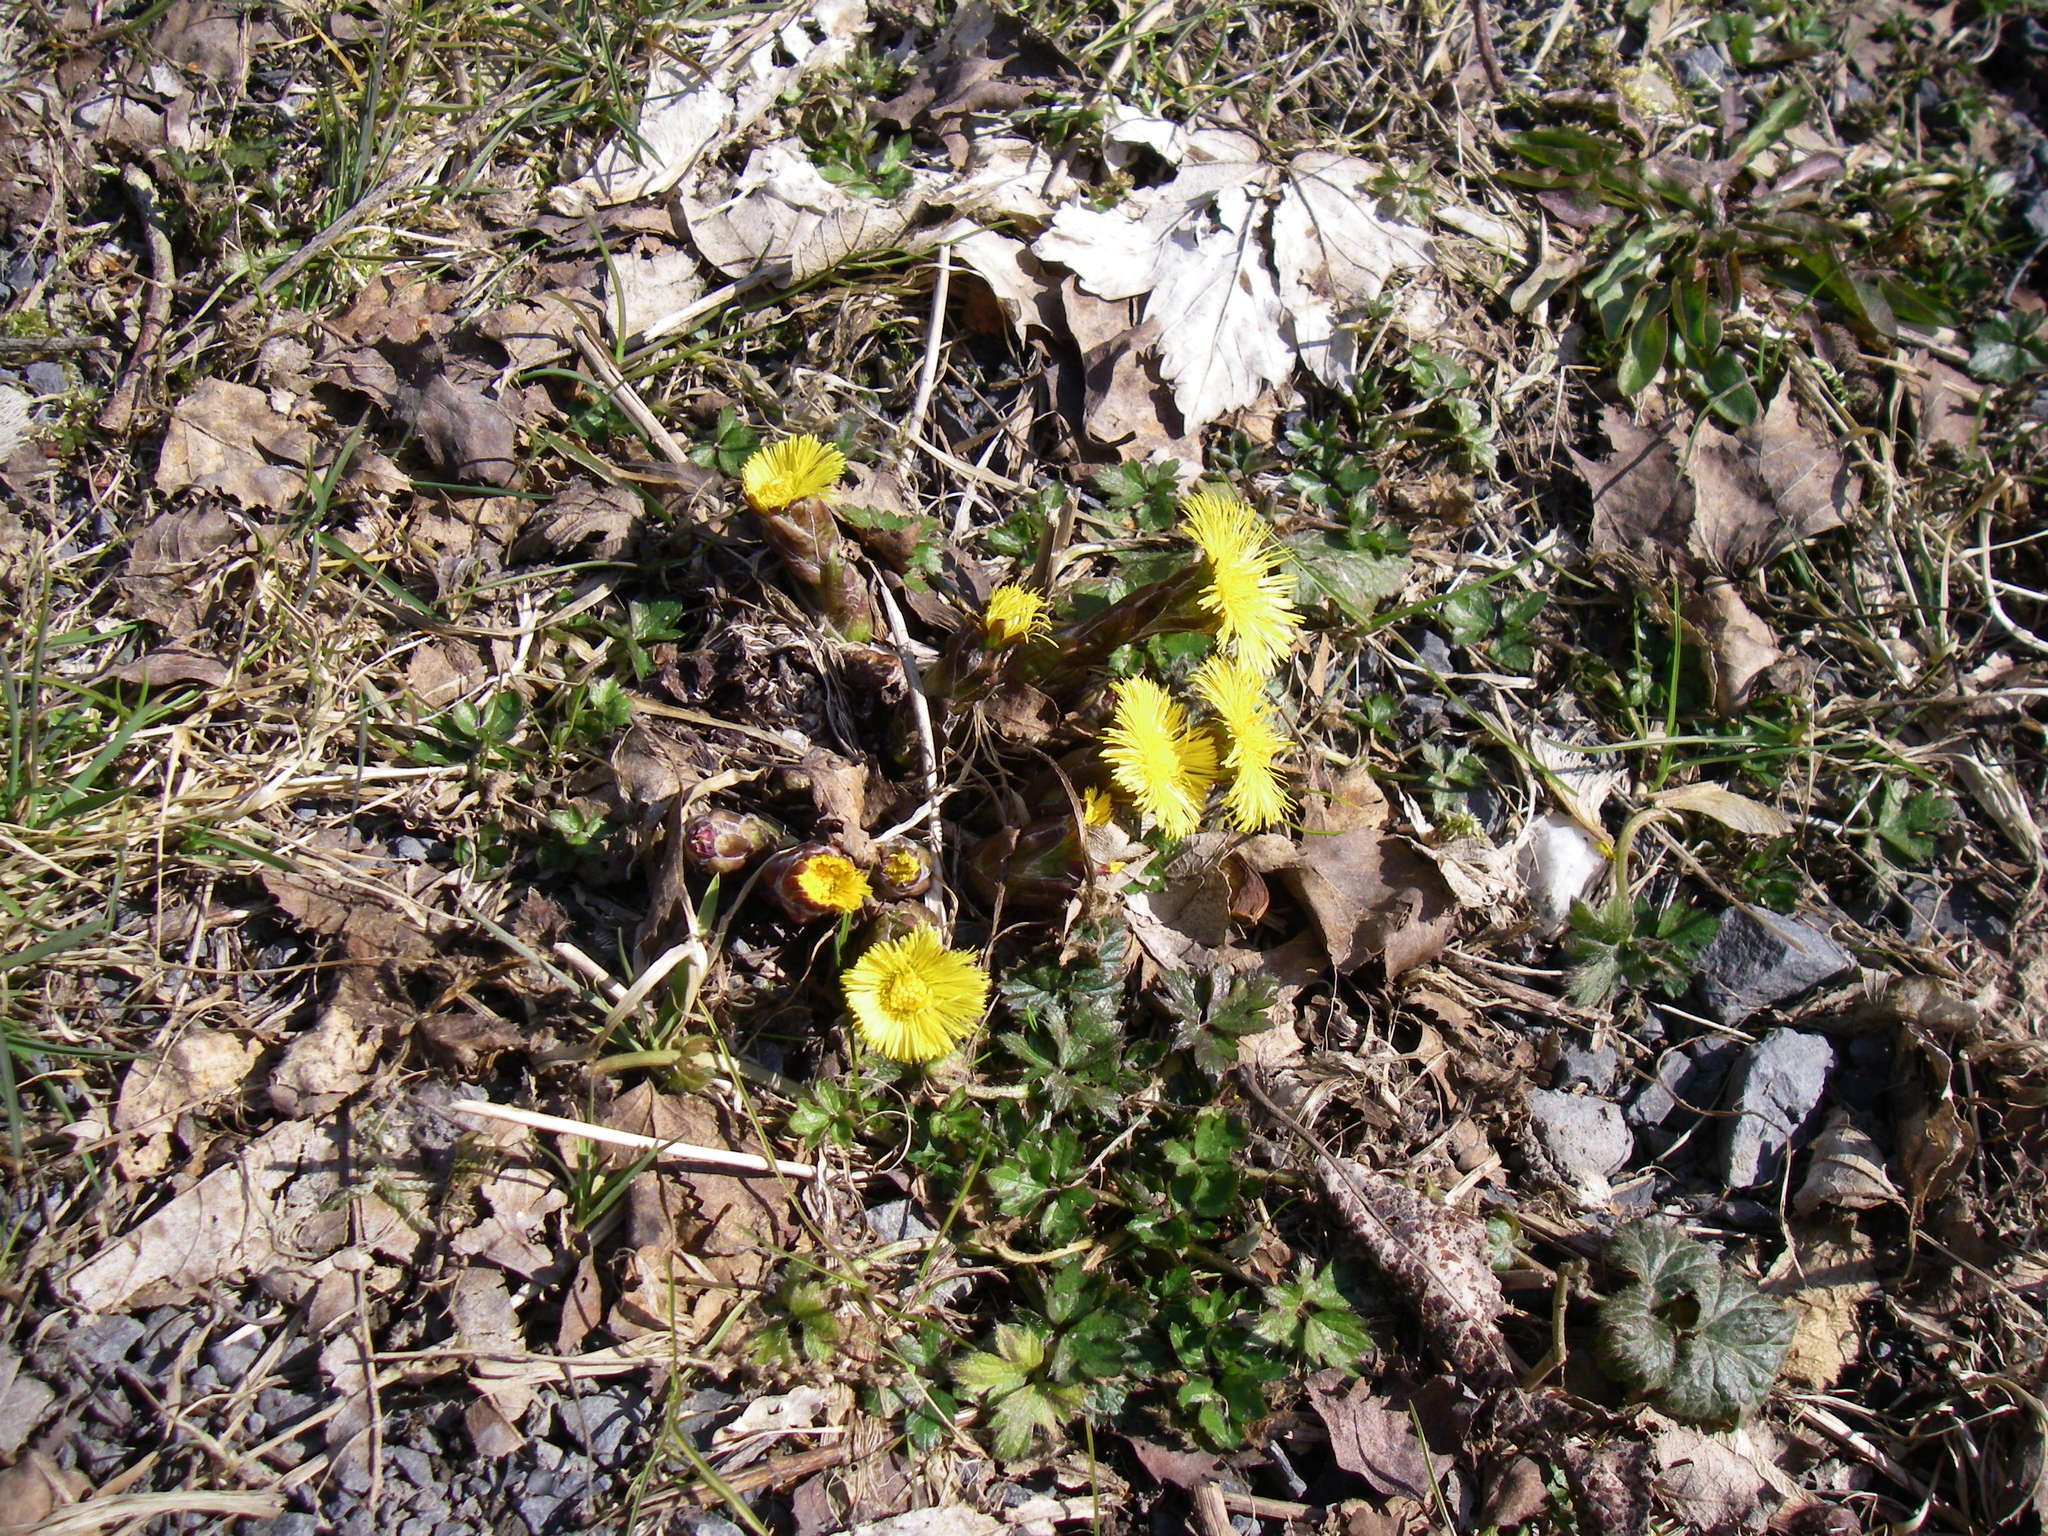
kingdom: Plantae
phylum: Tracheophyta
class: Magnoliopsida
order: Asterales
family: Asteraceae
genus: Tussilago
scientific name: Tussilago farfara
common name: Coltsfoot
